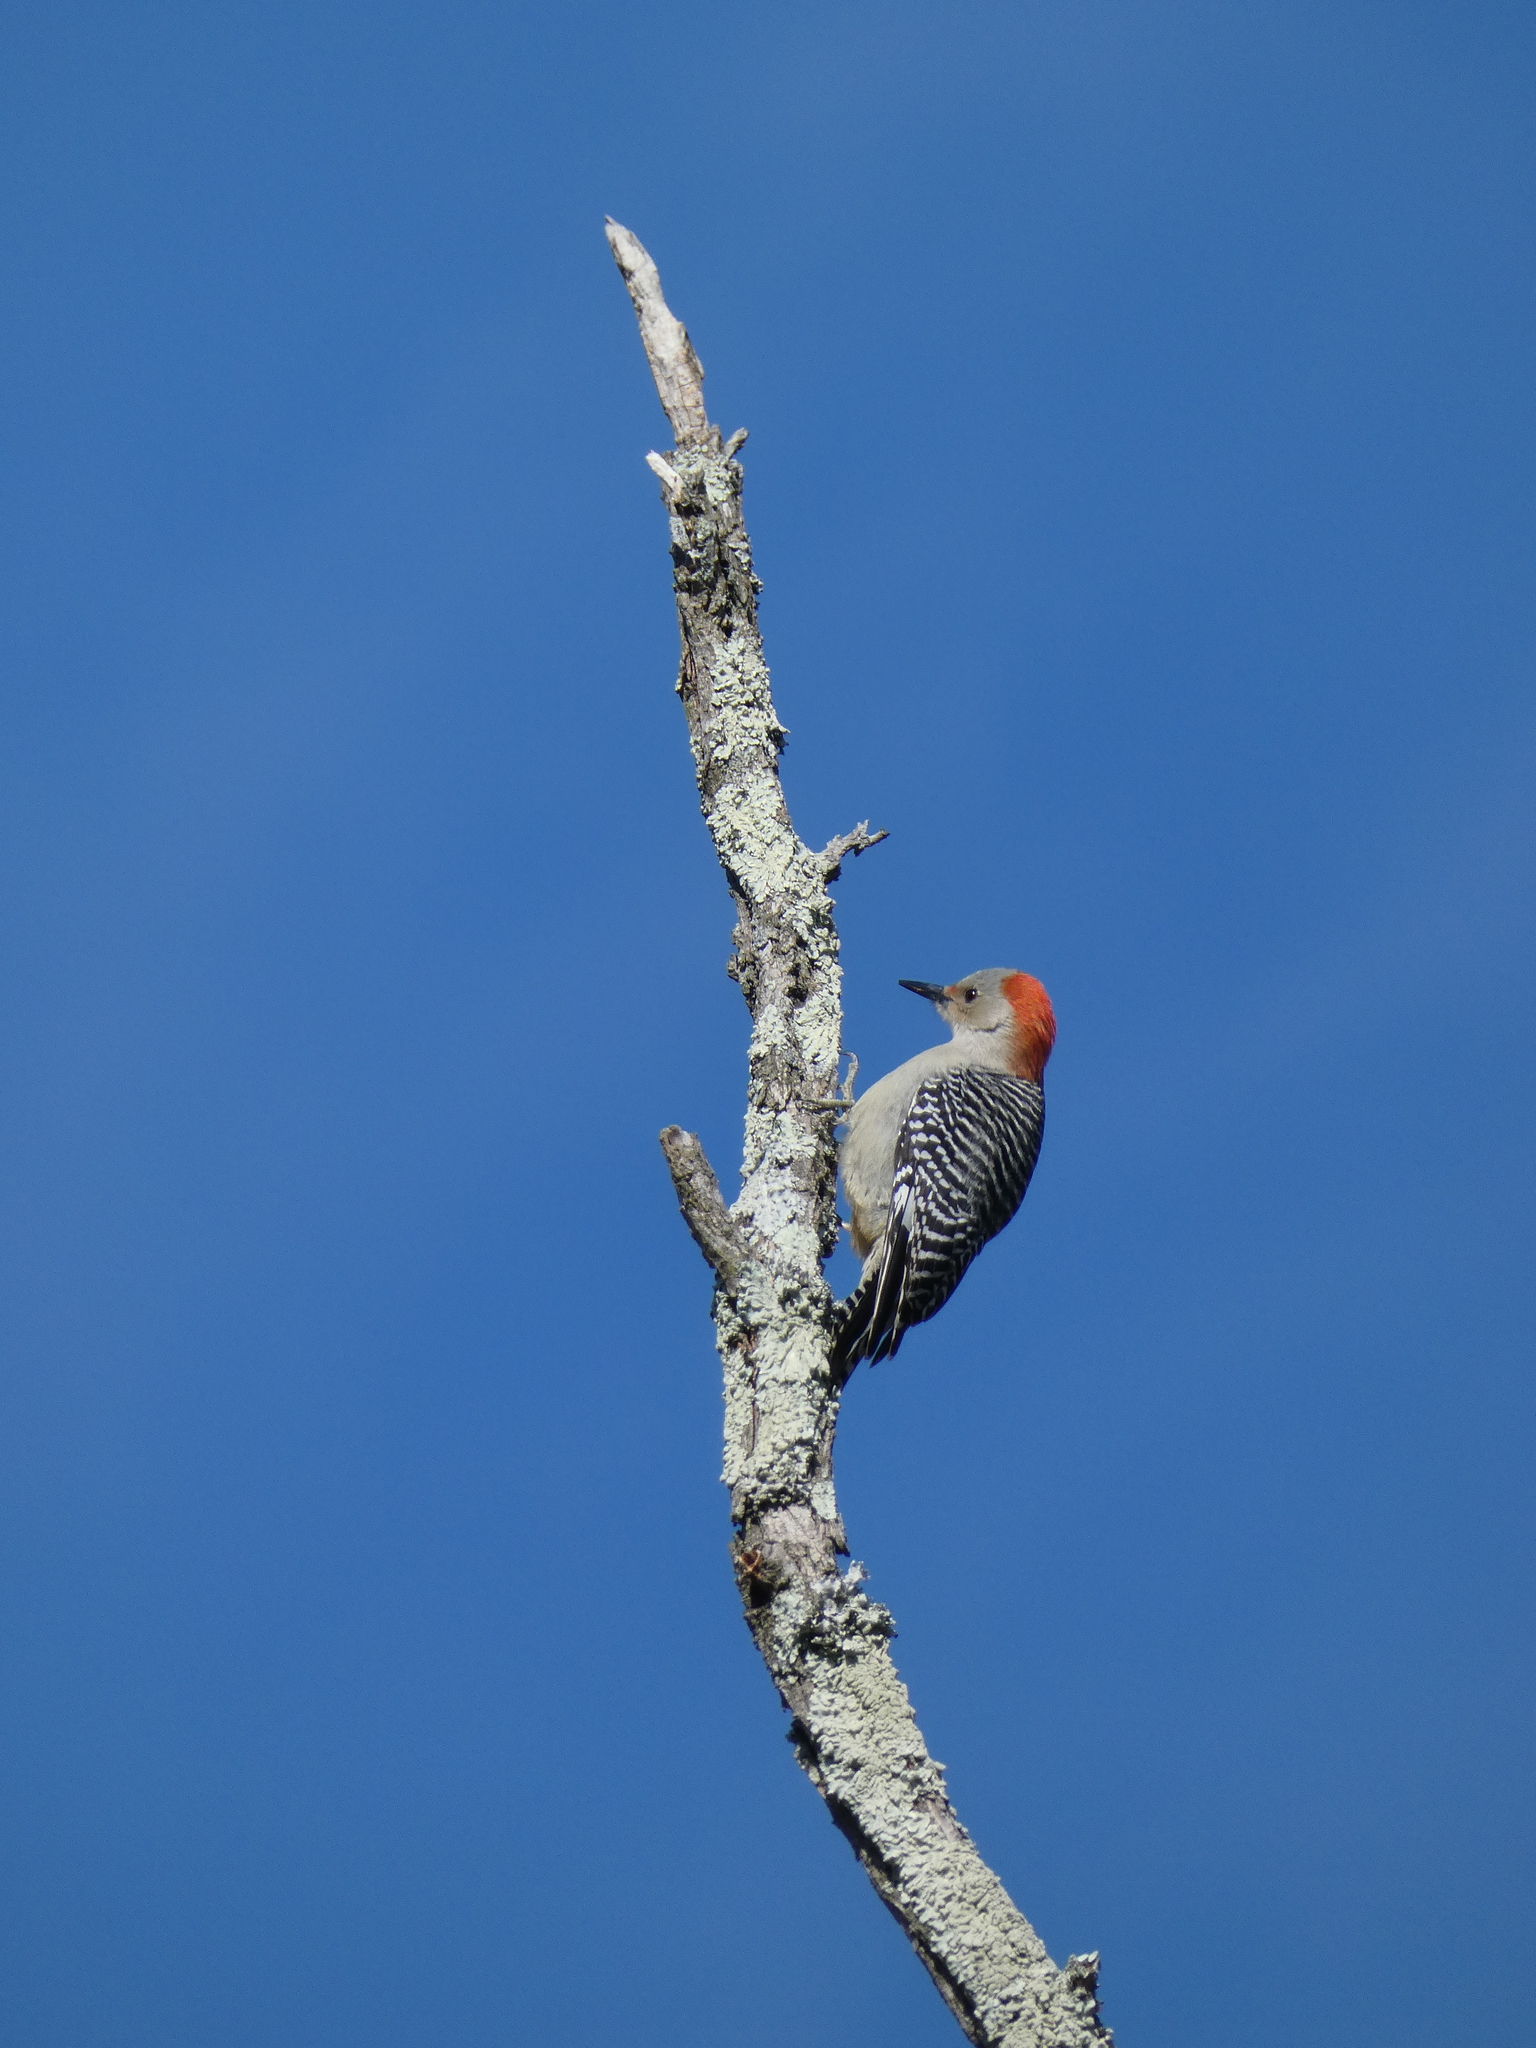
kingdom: Animalia
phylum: Chordata
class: Aves
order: Piciformes
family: Picidae
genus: Melanerpes
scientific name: Melanerpes carolinus
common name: Red-bellied woodpecker
